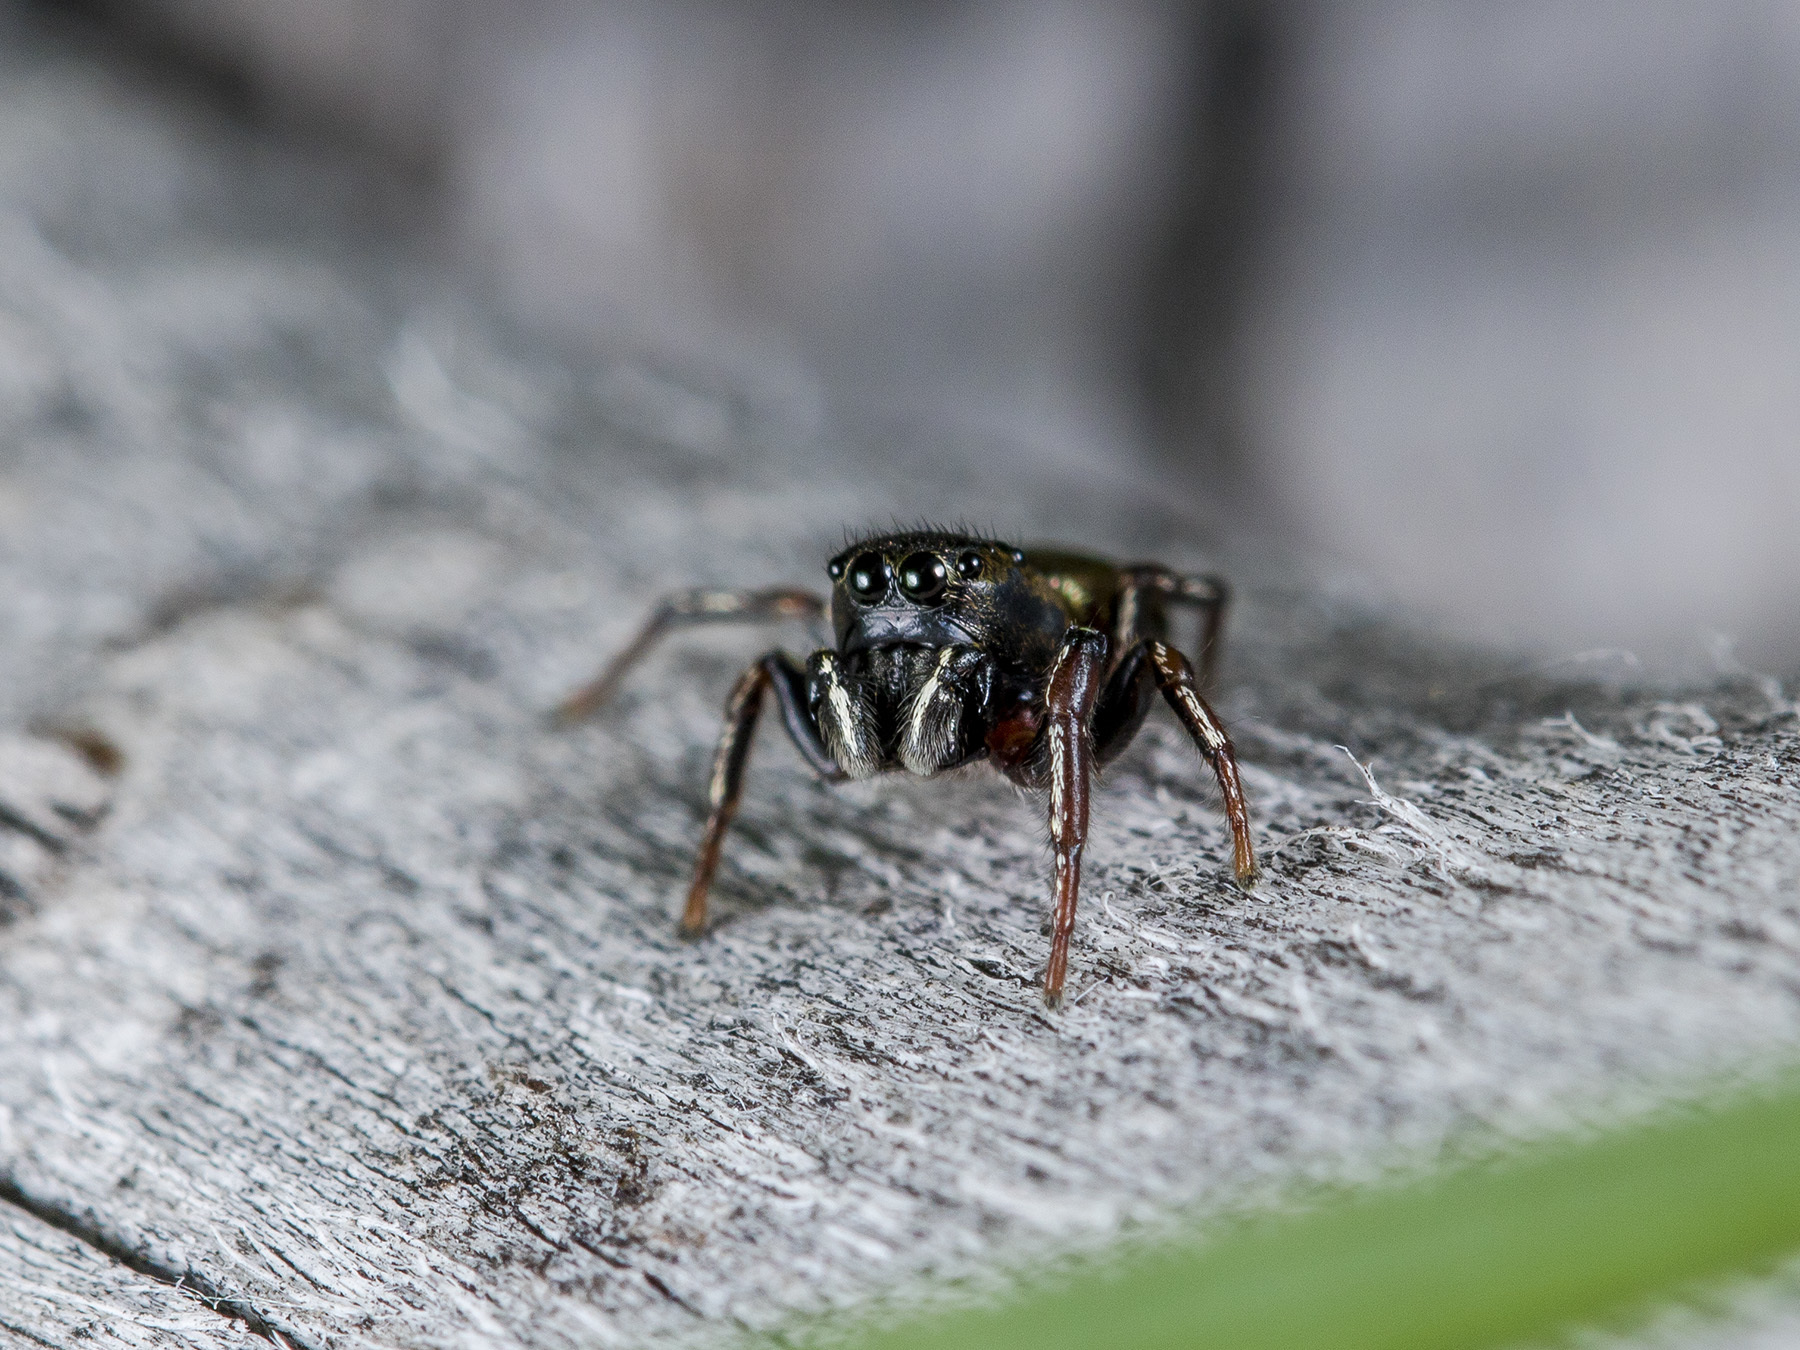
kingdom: Animalia
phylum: Arthropoda
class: Arachnida
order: Araneae
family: Salticidae
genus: Heliophanus
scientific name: Heliophanus auratus
